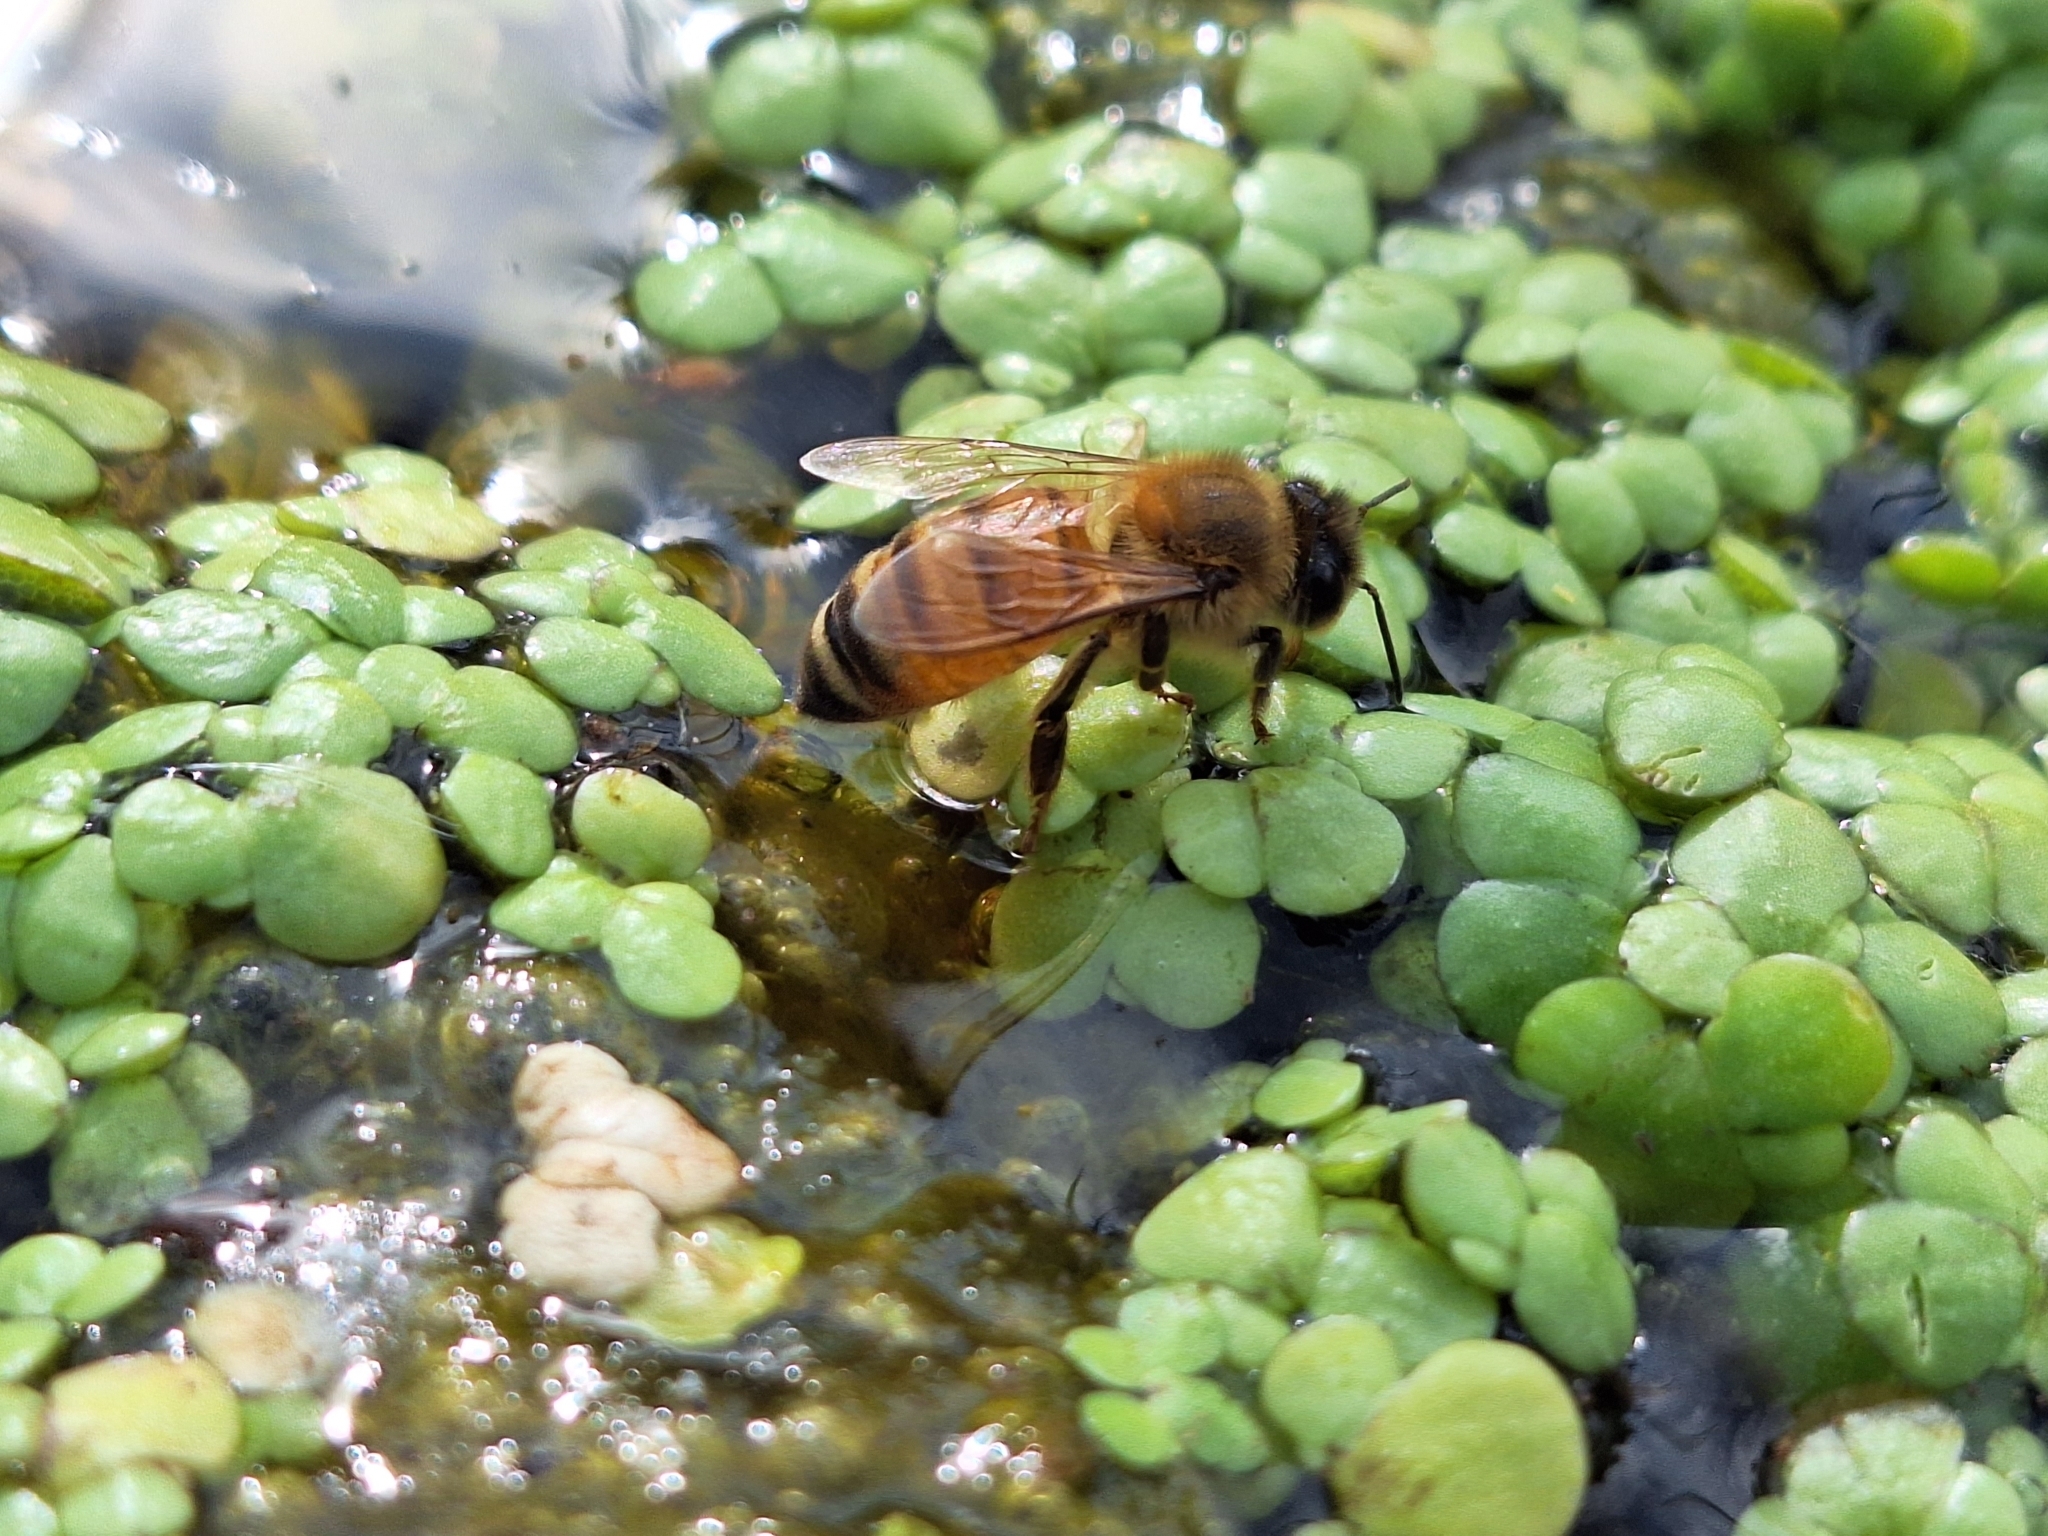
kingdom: Animalia
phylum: Arthropoda
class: Insecta
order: Hymenoptera
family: Apidae
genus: Apis
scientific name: Apis mellifera
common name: Honey bee
